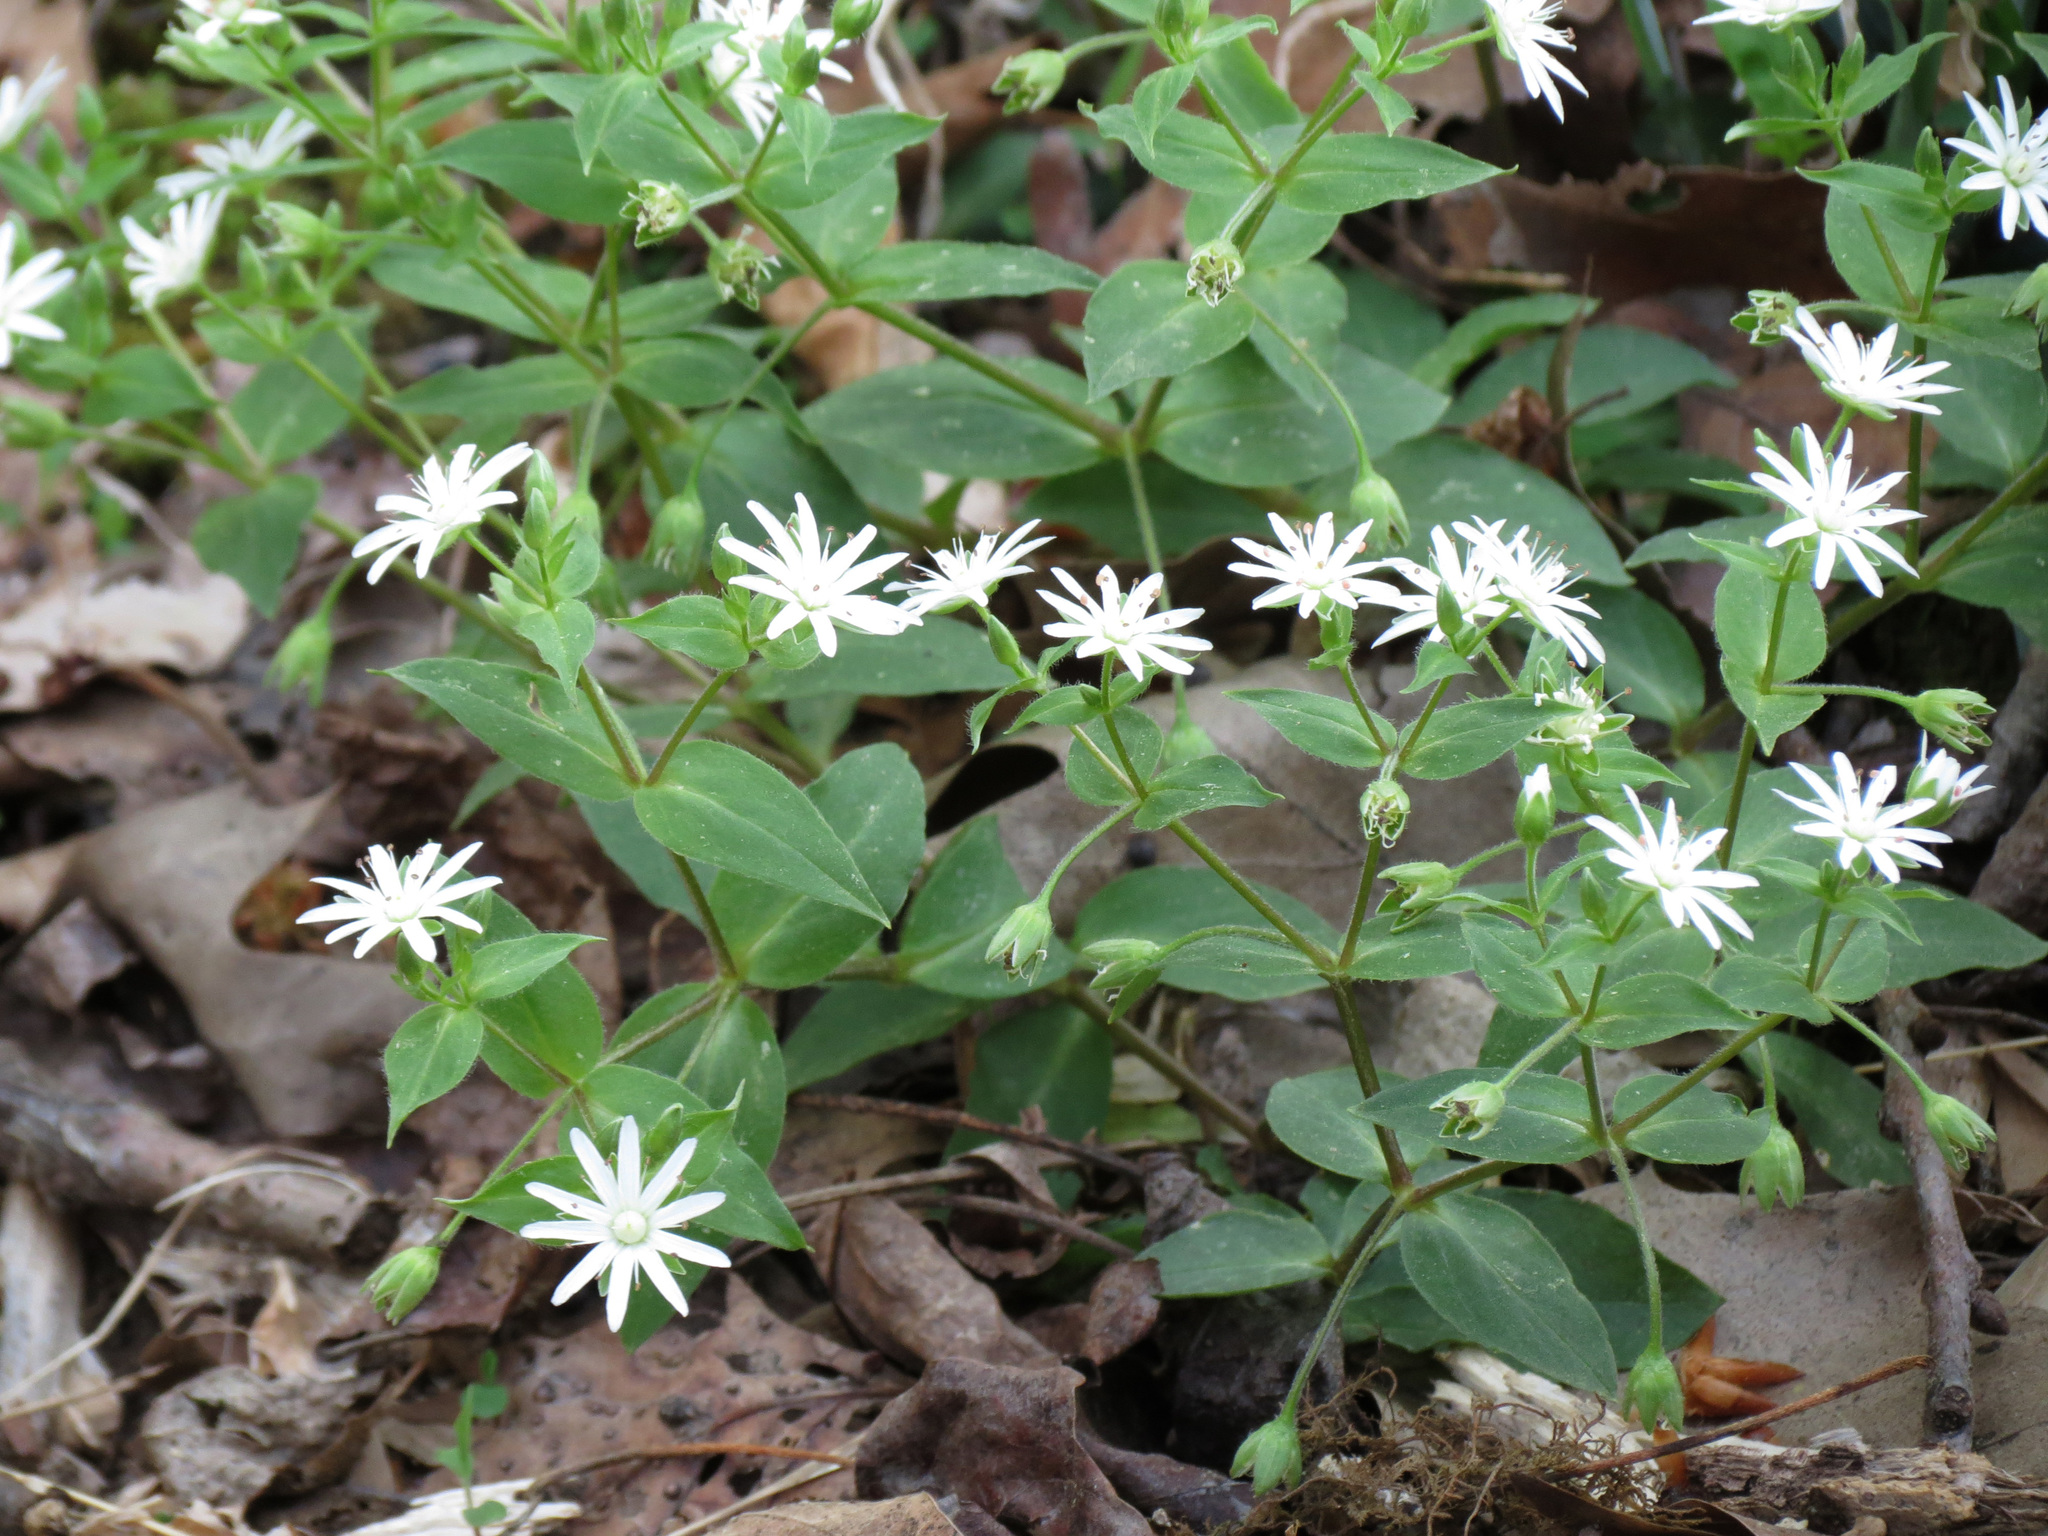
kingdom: Plantae
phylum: Tracheophyta
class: Magnoliopsida
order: Caryophyllales
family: Caryophyllaceae
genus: Stellaria
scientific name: Stellaria pubera
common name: Star chickweed
